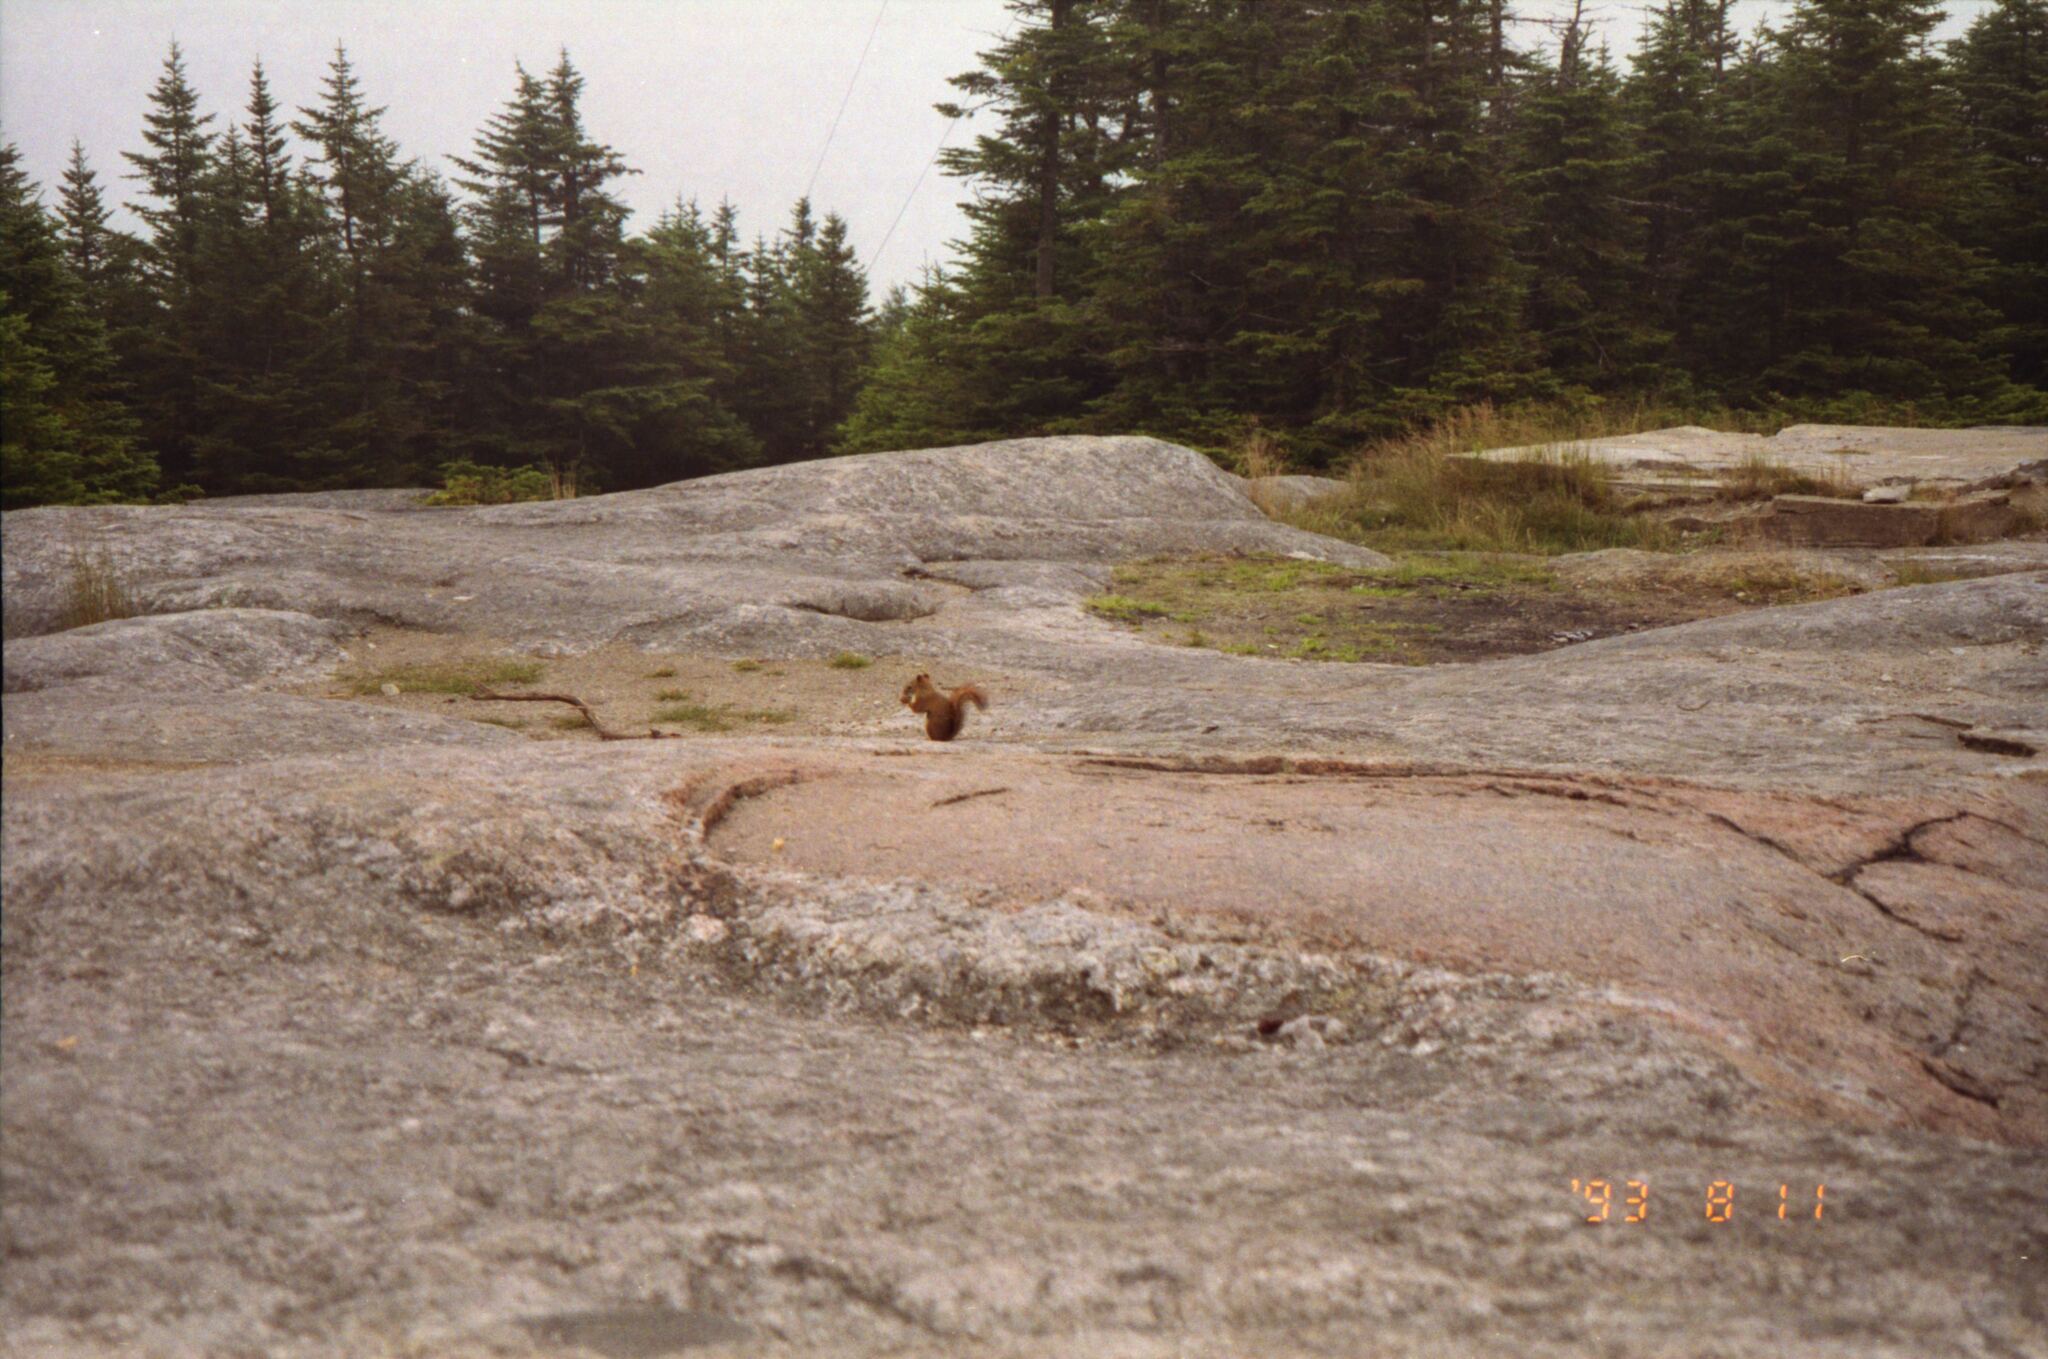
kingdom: Animalia
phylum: Chordata
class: Mammalia
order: Rodentia
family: Sciuridae
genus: Tamiasciurus
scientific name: Tamiasciurus hudsonicus
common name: Red squirrel
